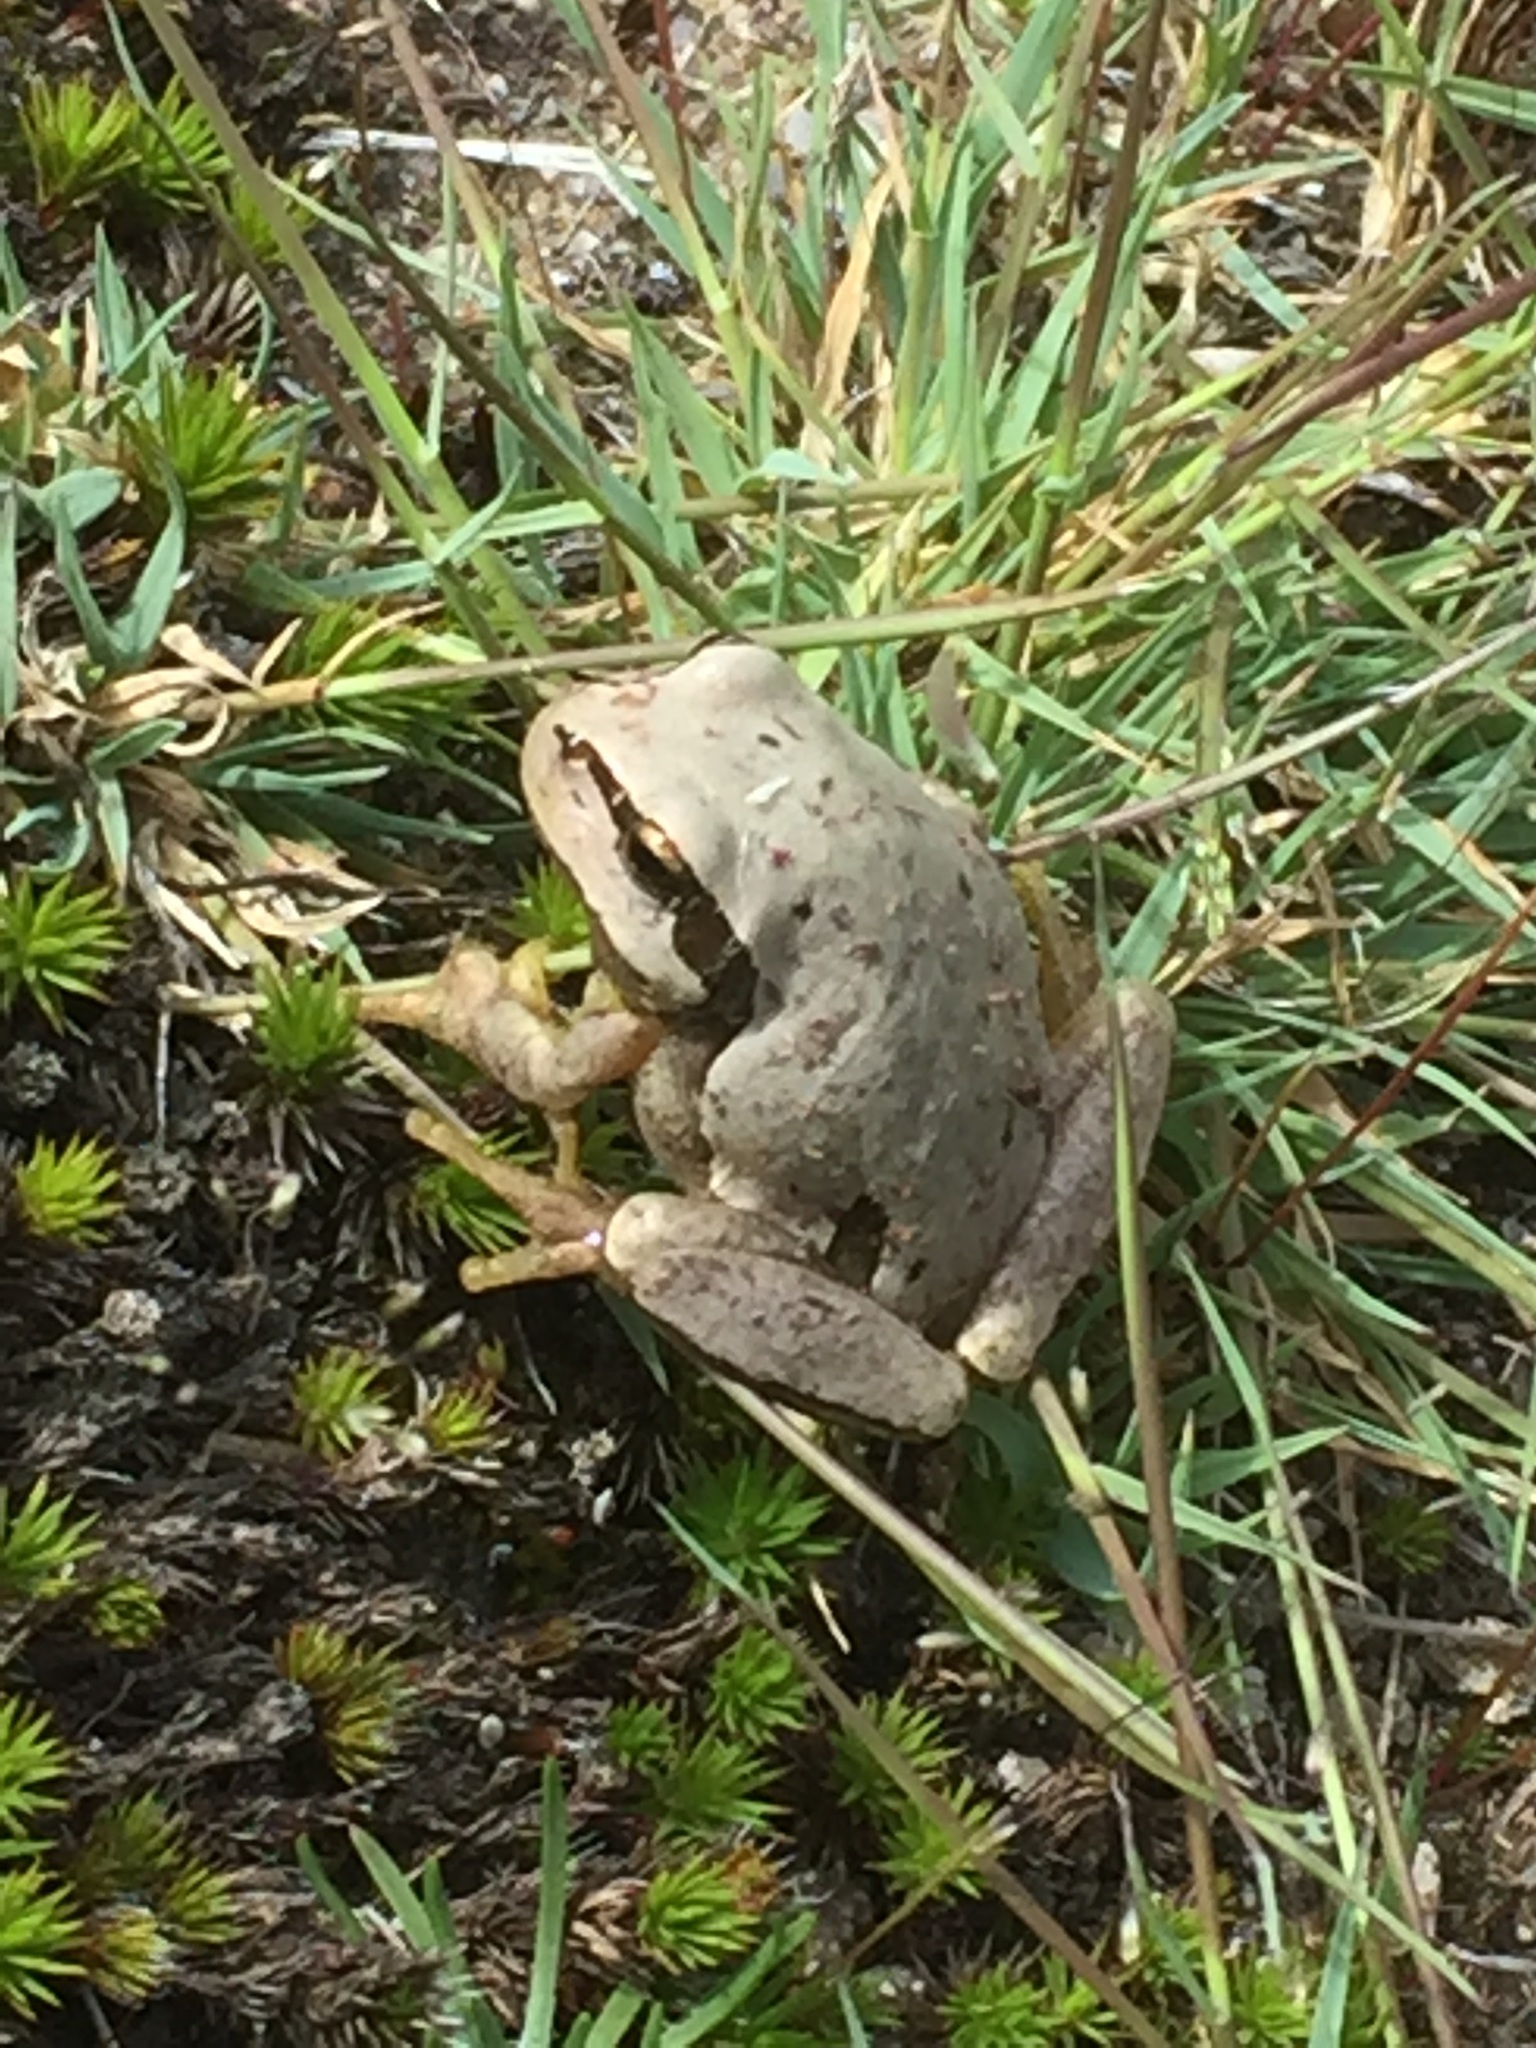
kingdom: Animalia
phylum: Chordata
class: Amphibia
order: Anura
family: Hylidae
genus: Hyla
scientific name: Hyla molleri
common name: Iberian tree frog
